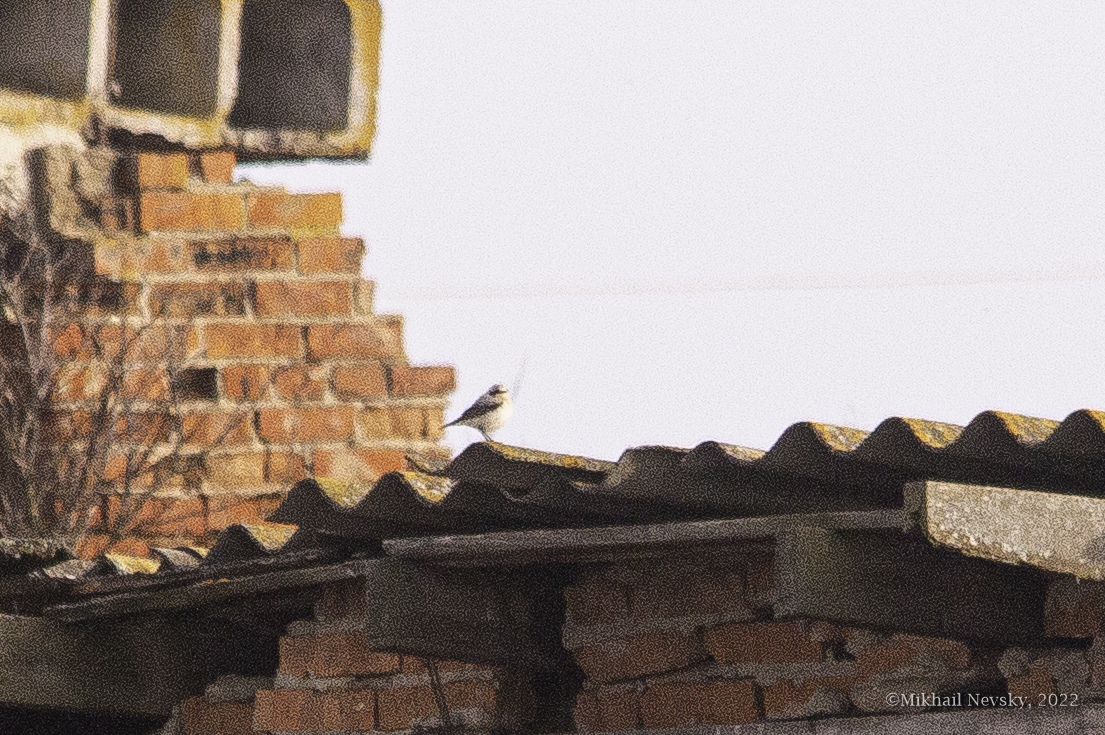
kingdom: Animalia
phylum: Chordata
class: Aves
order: Passeriformes
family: Muscicapidae
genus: Oenanthe
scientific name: Oenanthe oenanthe
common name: Northern wheatear
